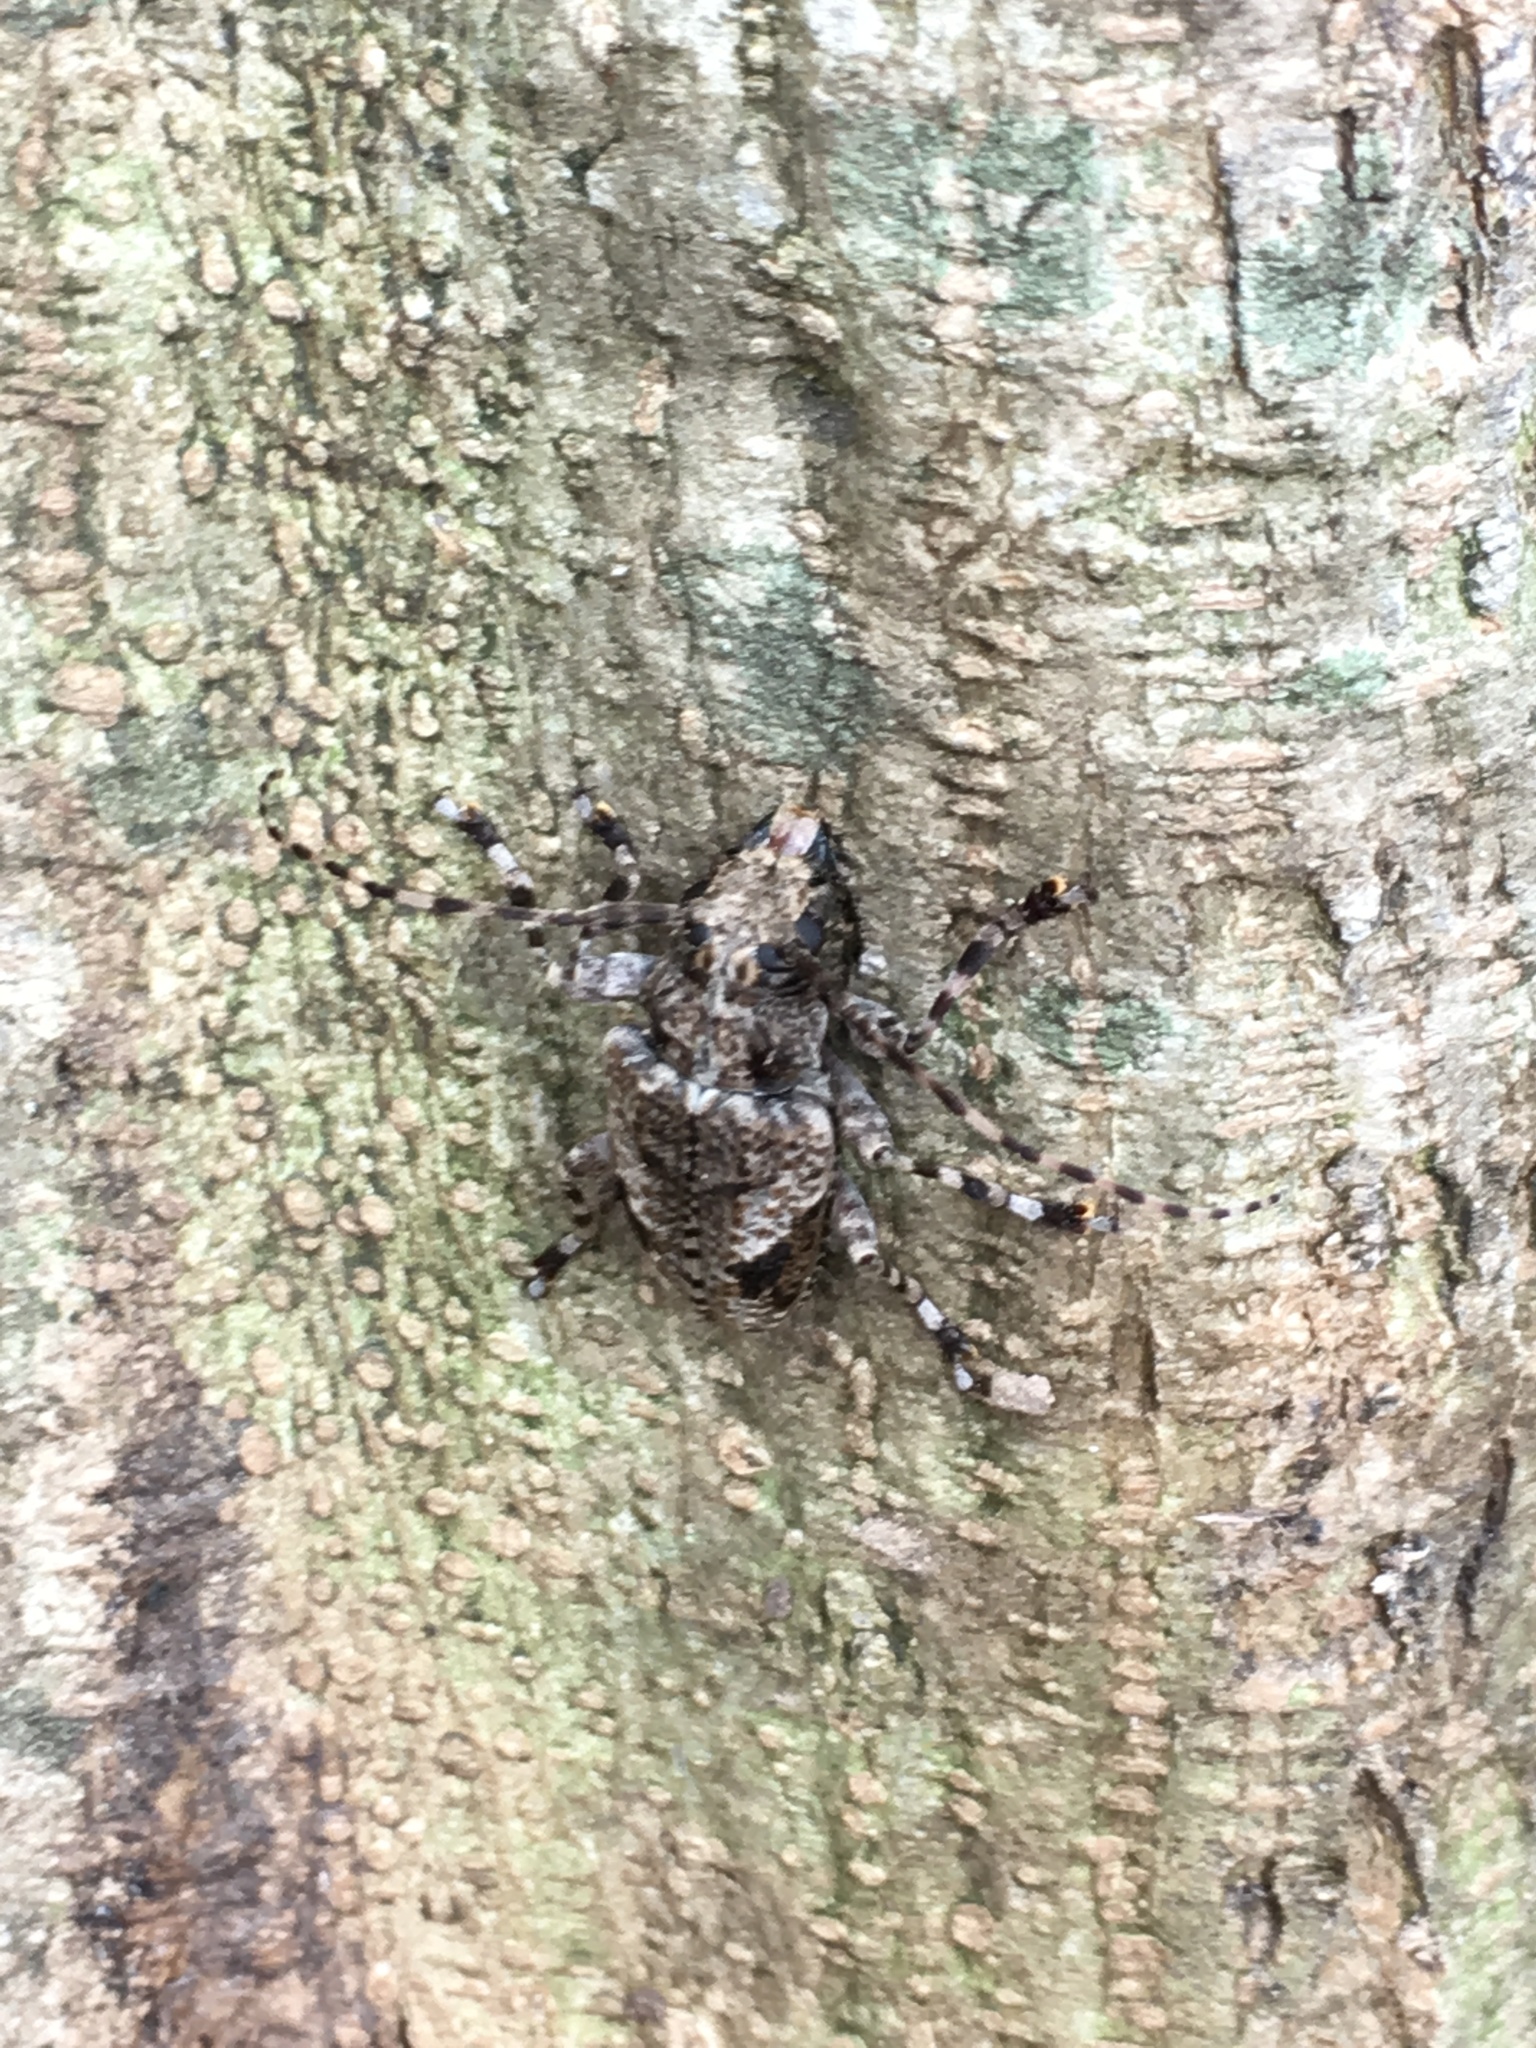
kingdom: Animalia
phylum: Arthropoda
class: Insecta
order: Coleoptera
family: Cerambycidae
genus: Psapharochrus
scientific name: Psapharochrus jaspideus
